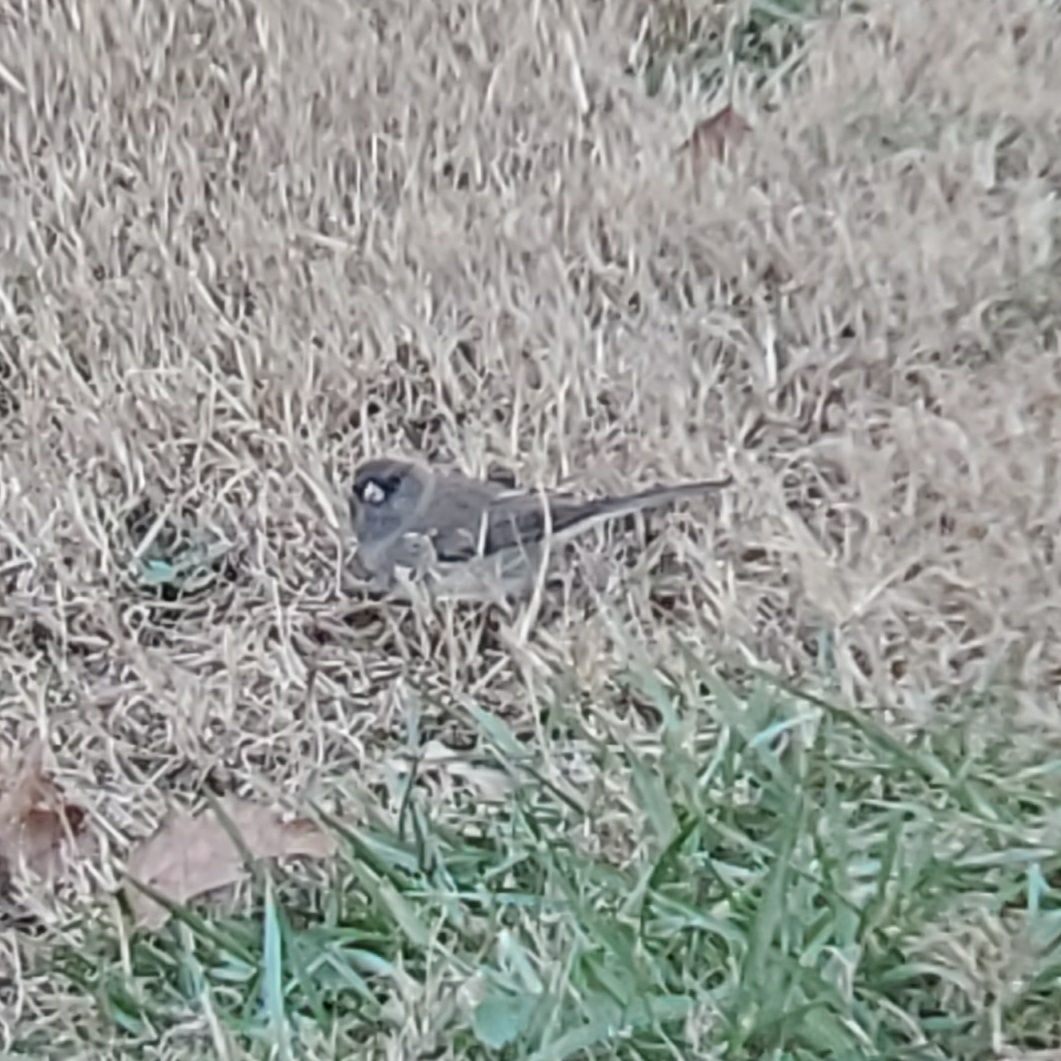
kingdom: Animalia
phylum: Chordata
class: Aves
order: Passeriformes
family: Passerellidae
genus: Junco
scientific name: Junco hyemalis
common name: Dark-eyed junco
